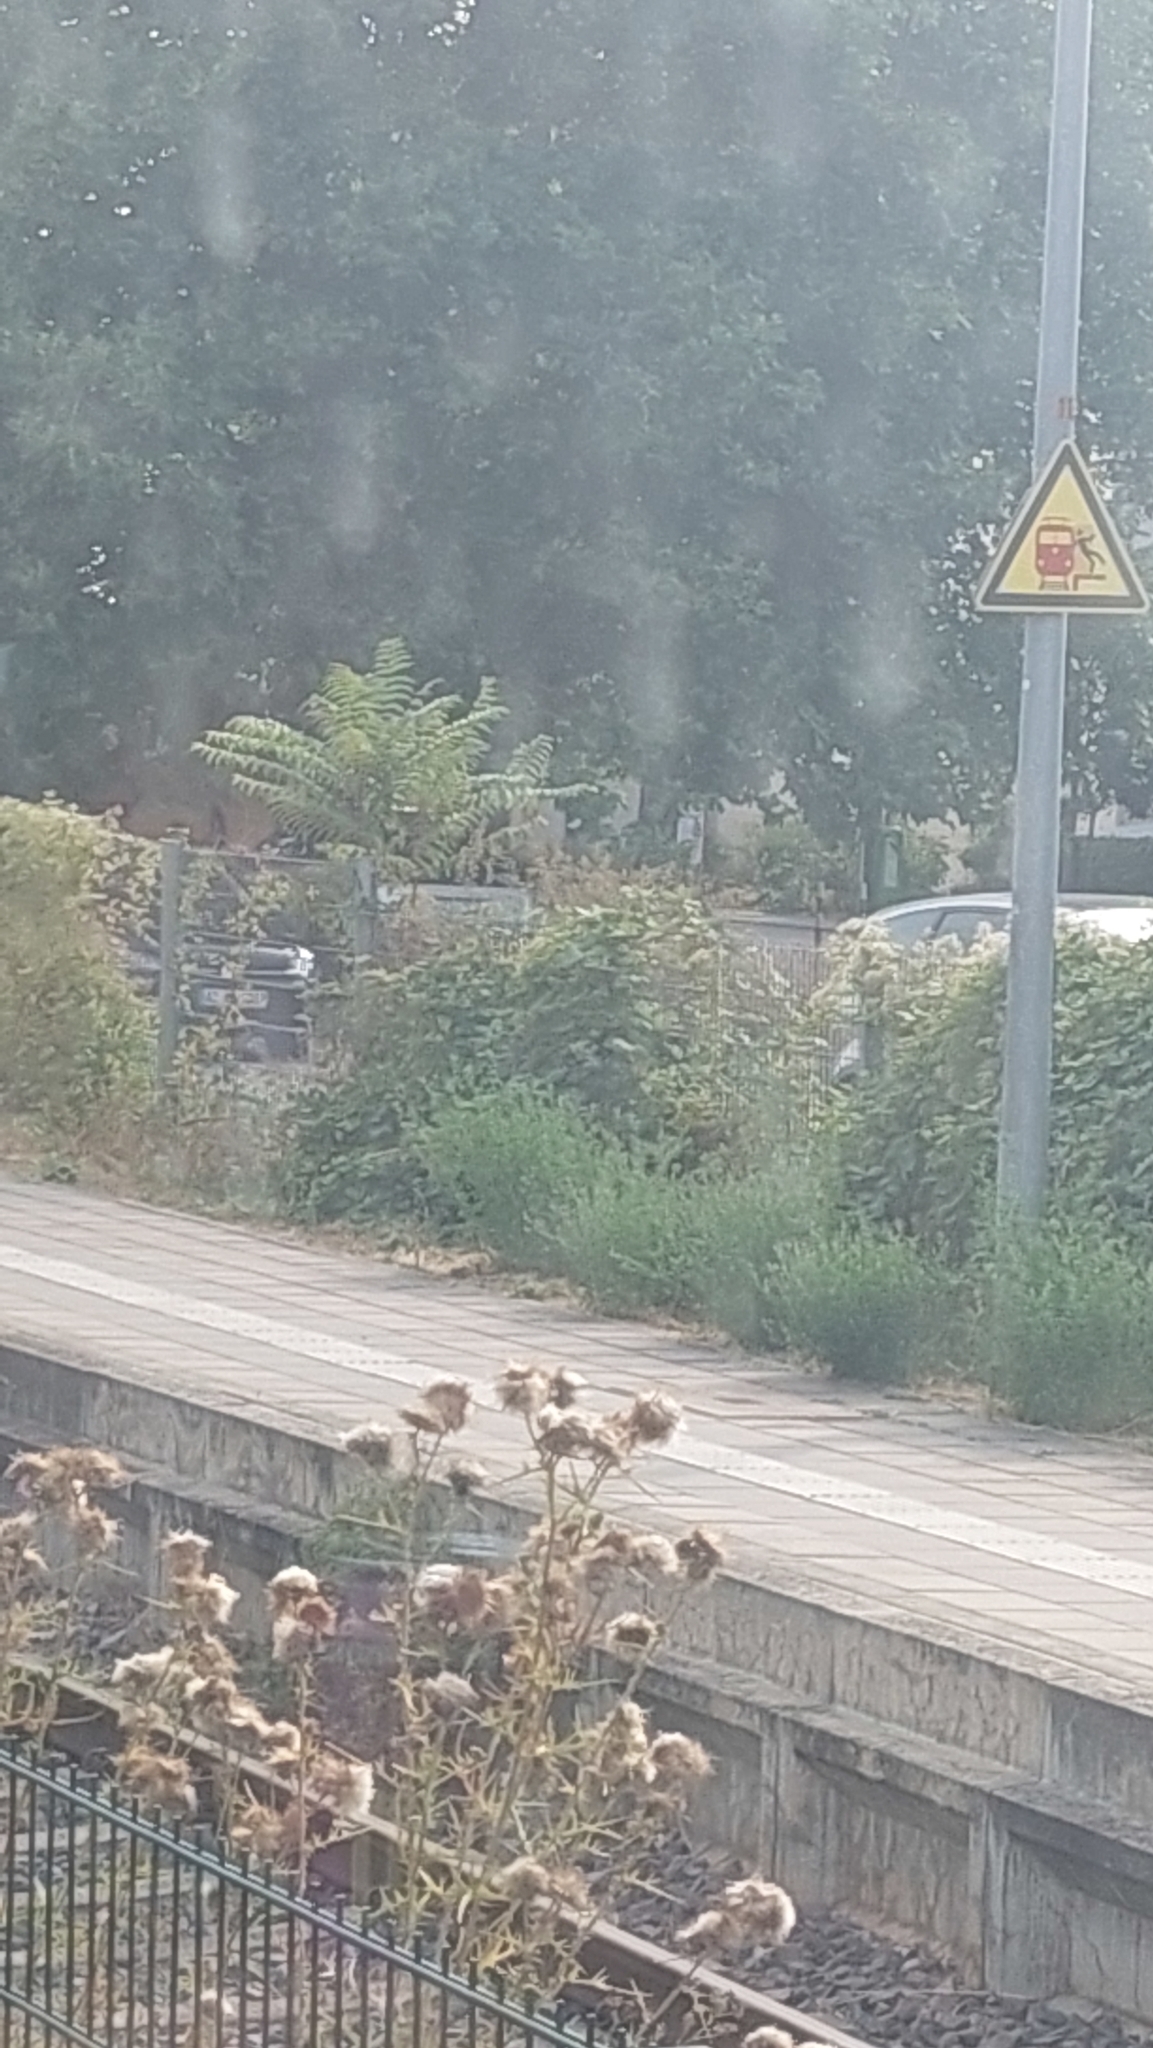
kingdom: Plantae
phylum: Tracheophyta
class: Magnoliopsida
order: Sapindales
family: Simaroubaceae
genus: Ailanthus
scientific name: Ailanthus altissima
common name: Tree-of-heaven
